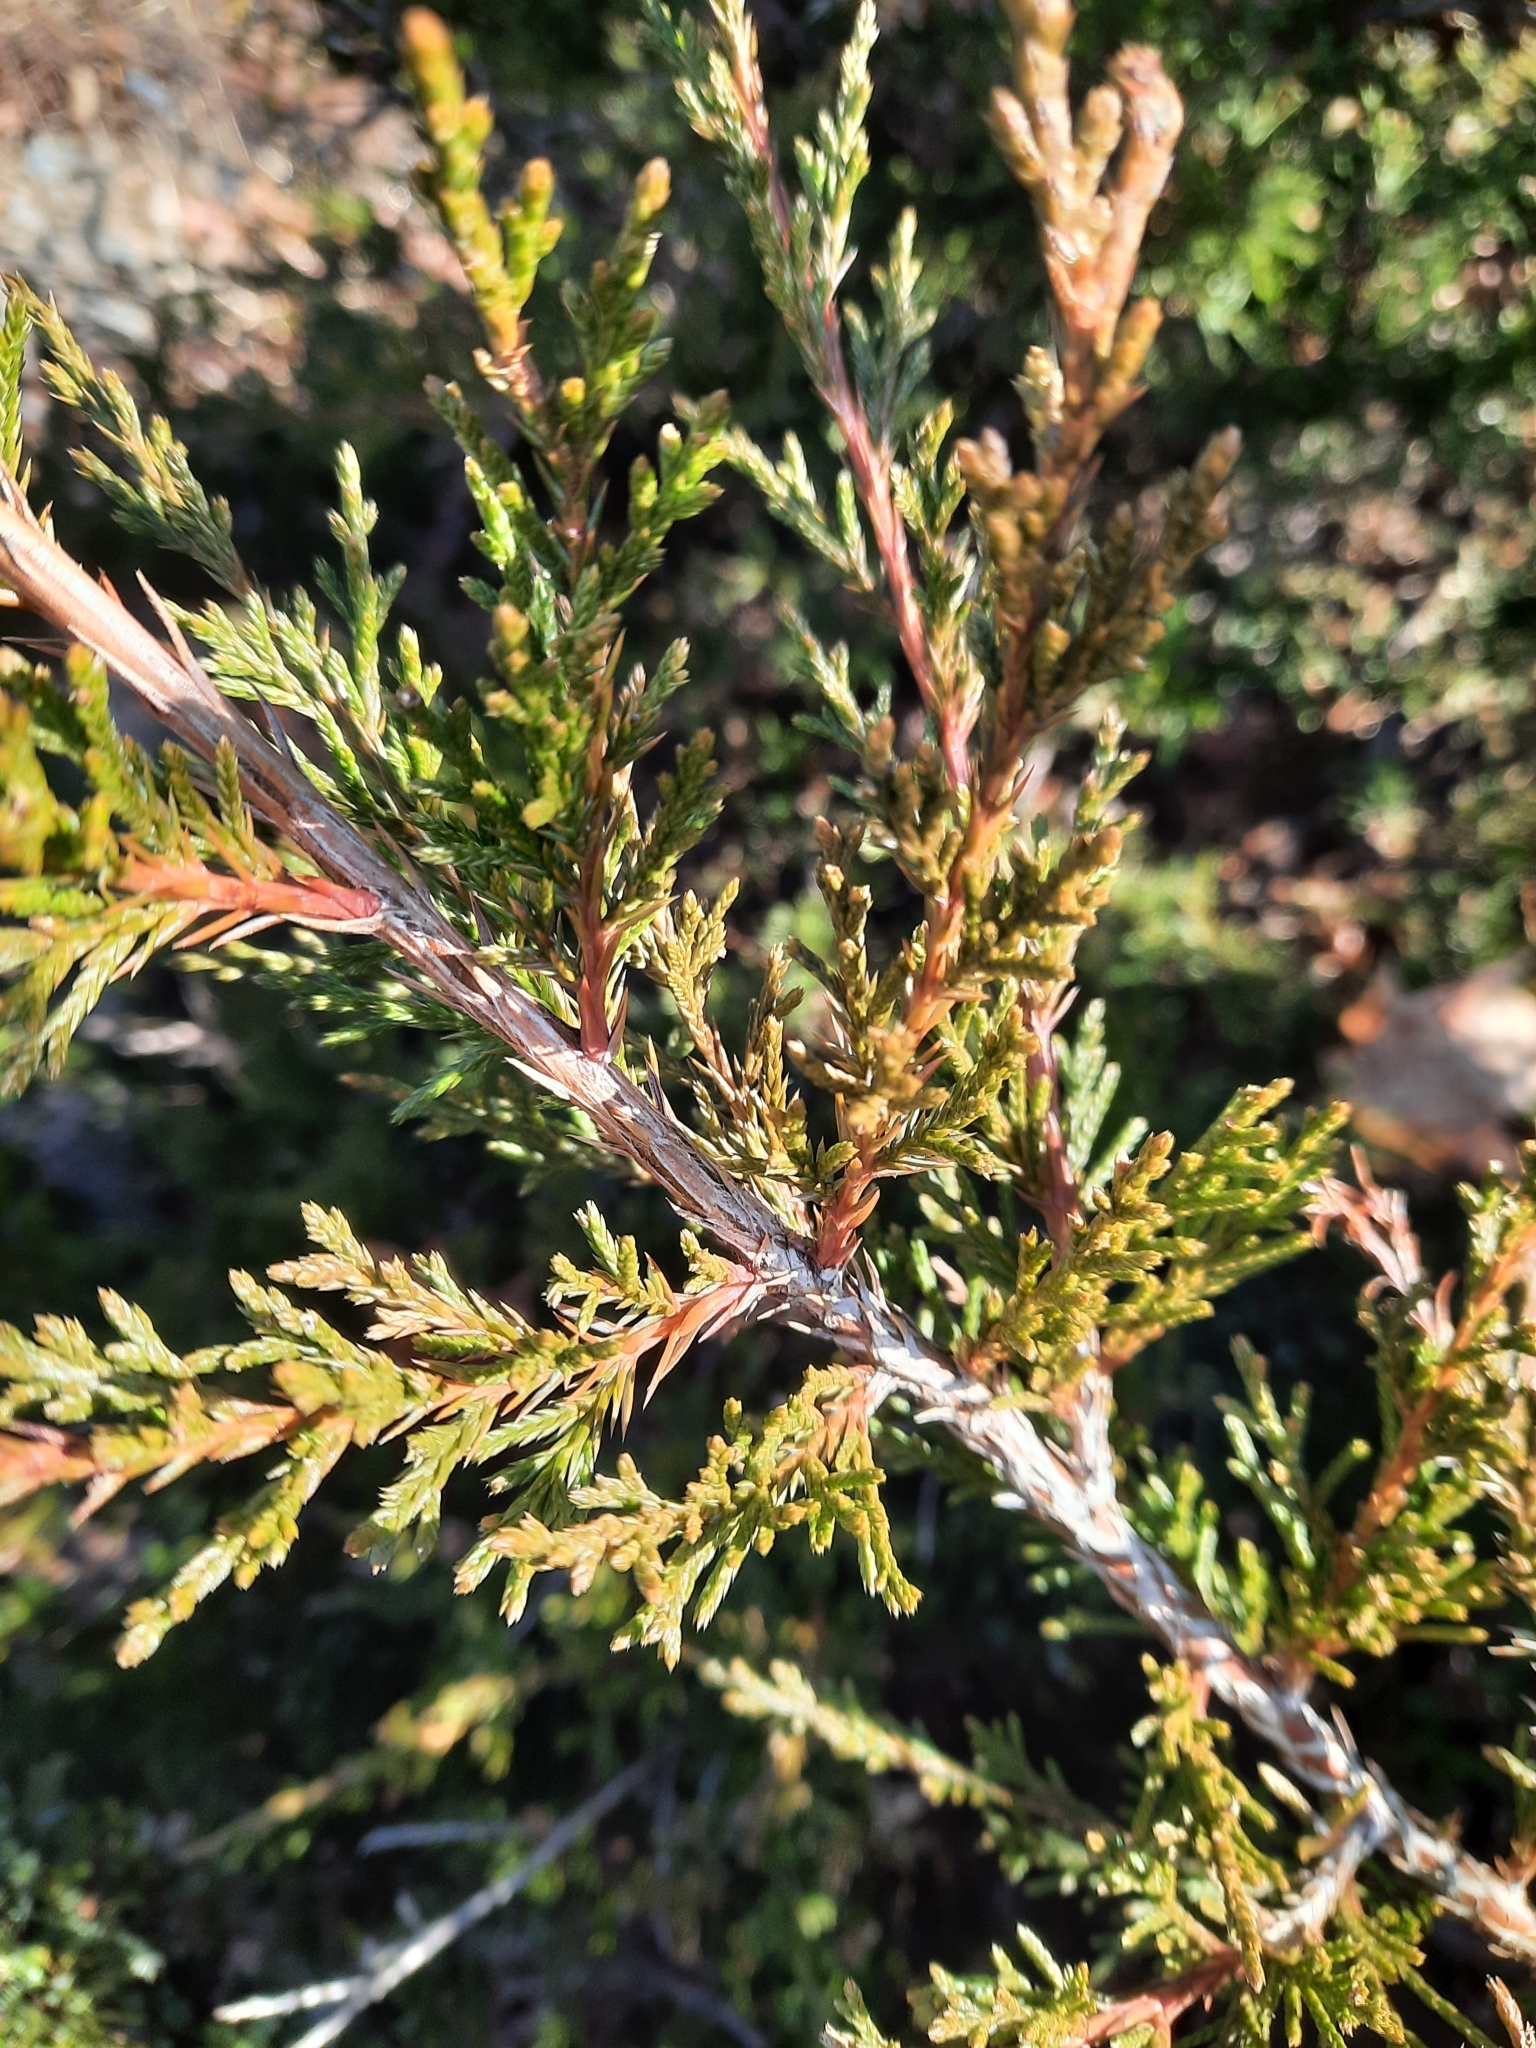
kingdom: Plantae
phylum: Tracheophyta
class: Pinopsida
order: Pinales
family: Cupressaceae
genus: Juniperus
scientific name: Juniperus virginiana
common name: Red juniper
